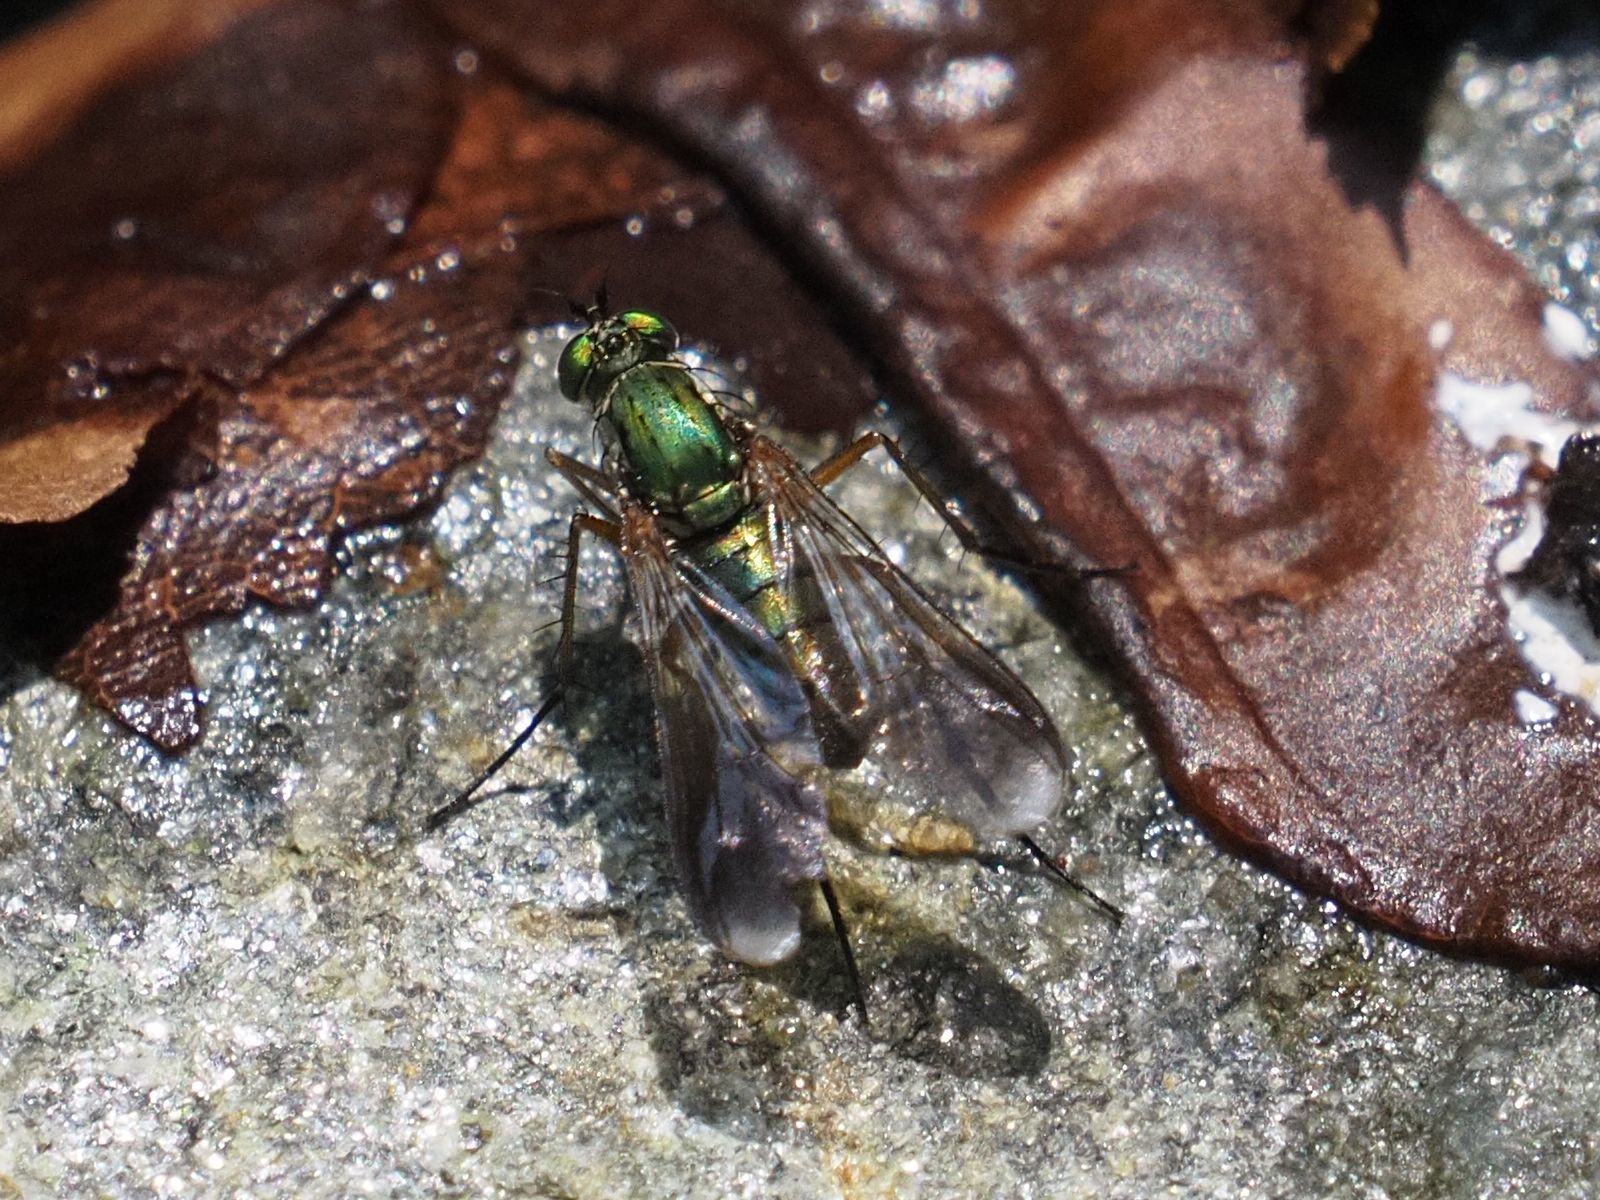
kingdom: Animalia
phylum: Arthropoda
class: Insecta
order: Diptera
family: Dolichopodidae
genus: Poecilobothrus
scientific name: Poecilobothrus nobilitatus
